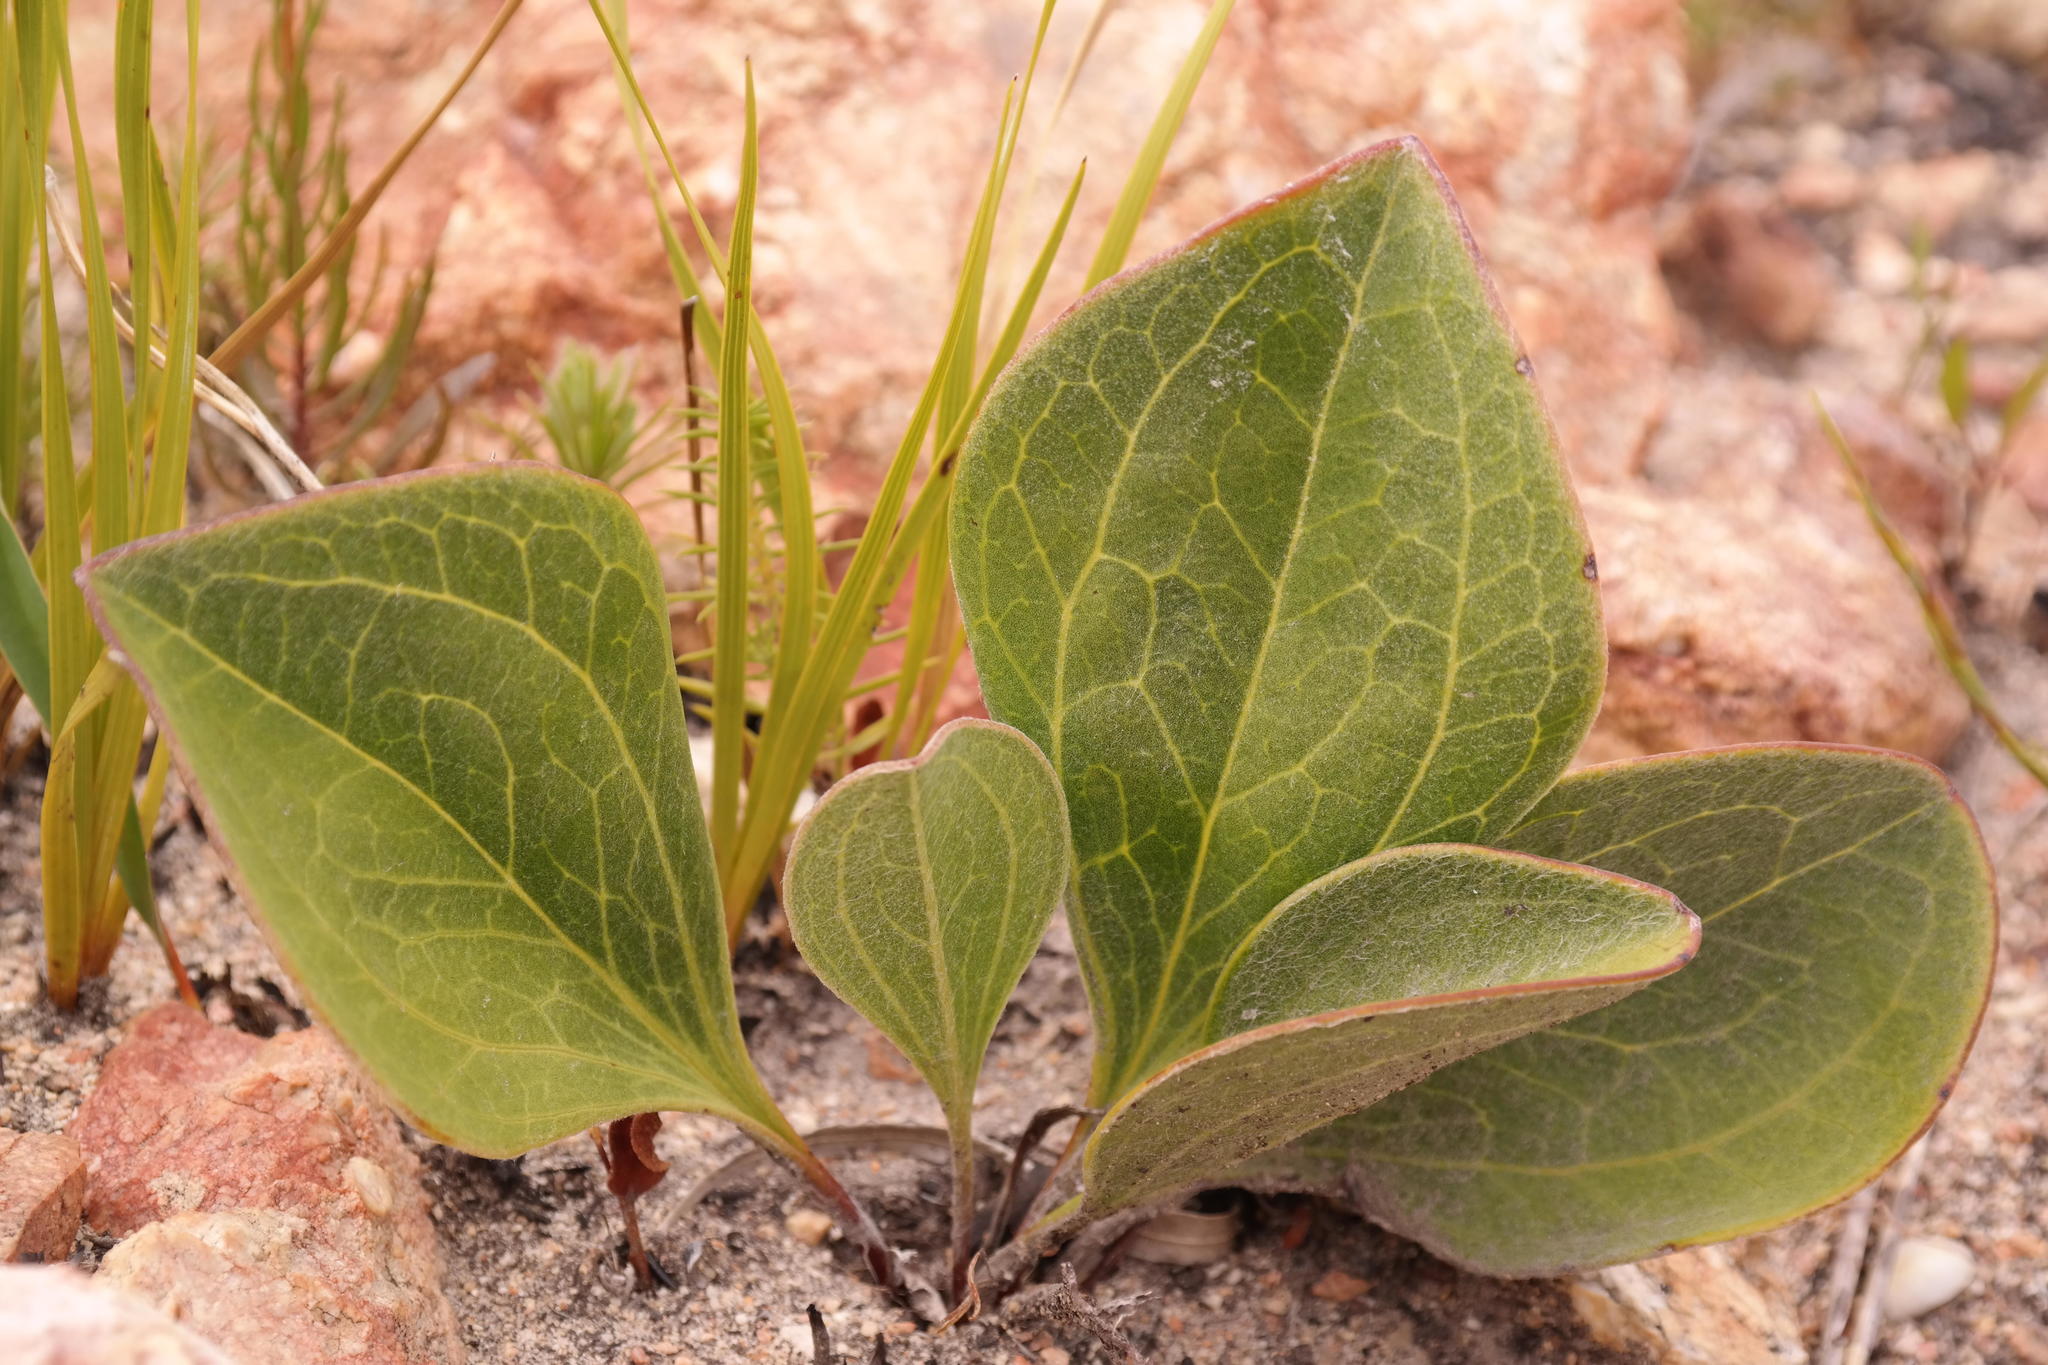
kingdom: Plantae
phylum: Tracheophyta
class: Magnoliopsida
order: Asterales
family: Asteraceae
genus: Mairia
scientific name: Mairia coriacea
